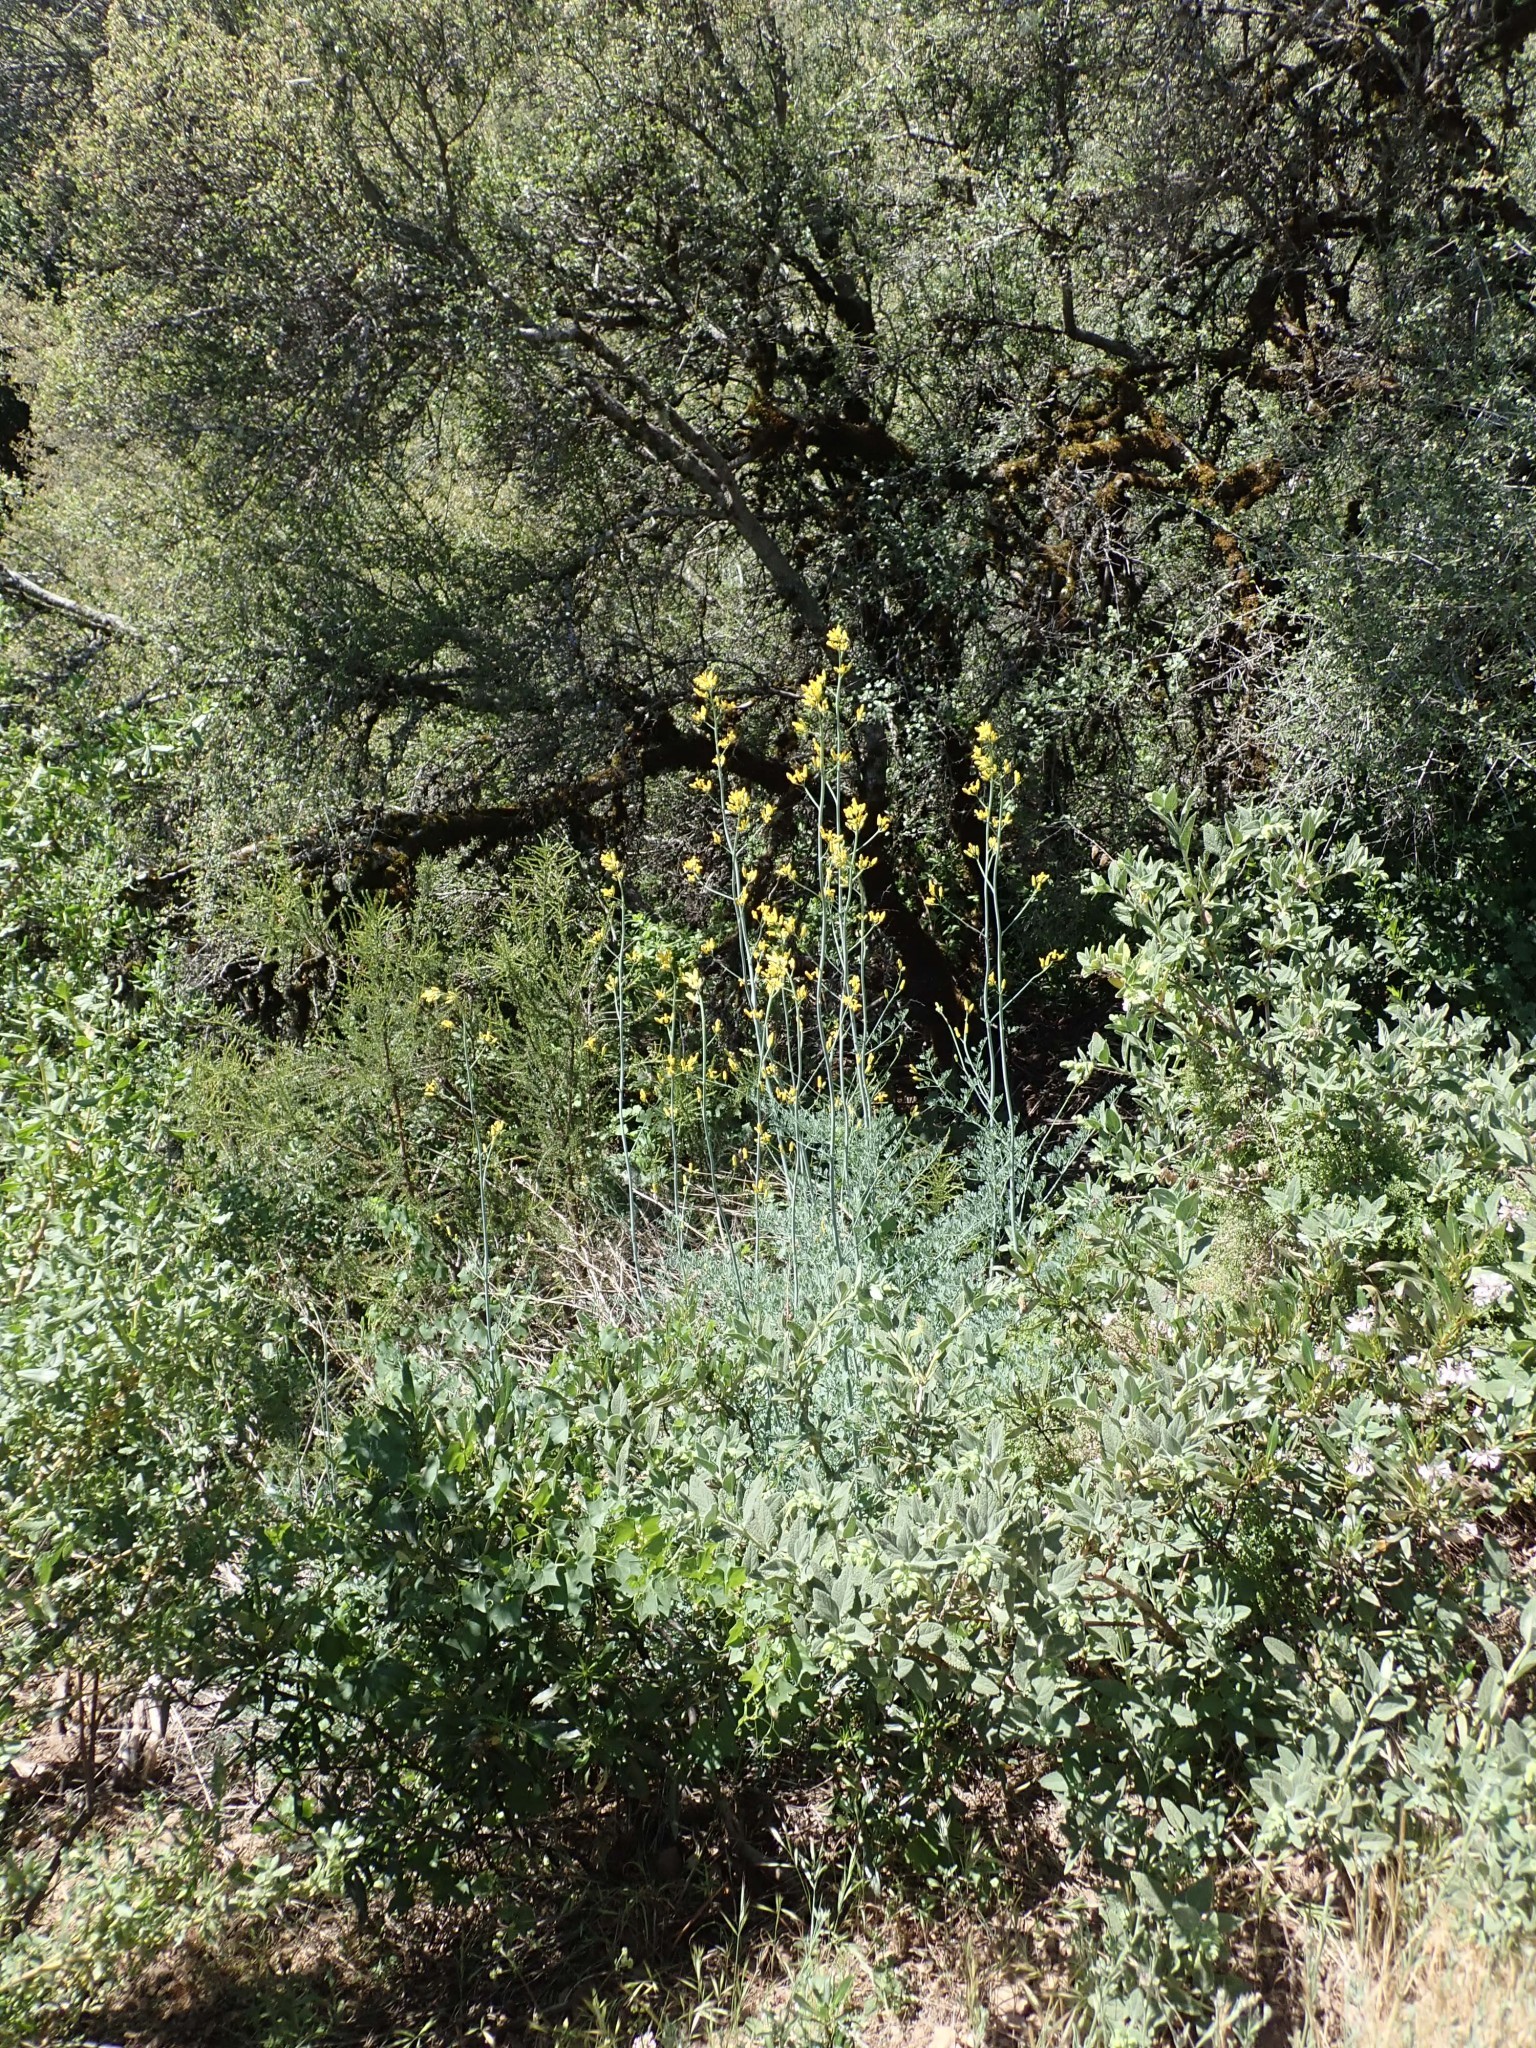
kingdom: Plantae
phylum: Tracheophyta
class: Magnoliopsida
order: Ranunculales
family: Papaveraceae
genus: Ehrendorferia
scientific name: Ehrendorferia chrysantha
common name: Golden eardrops
